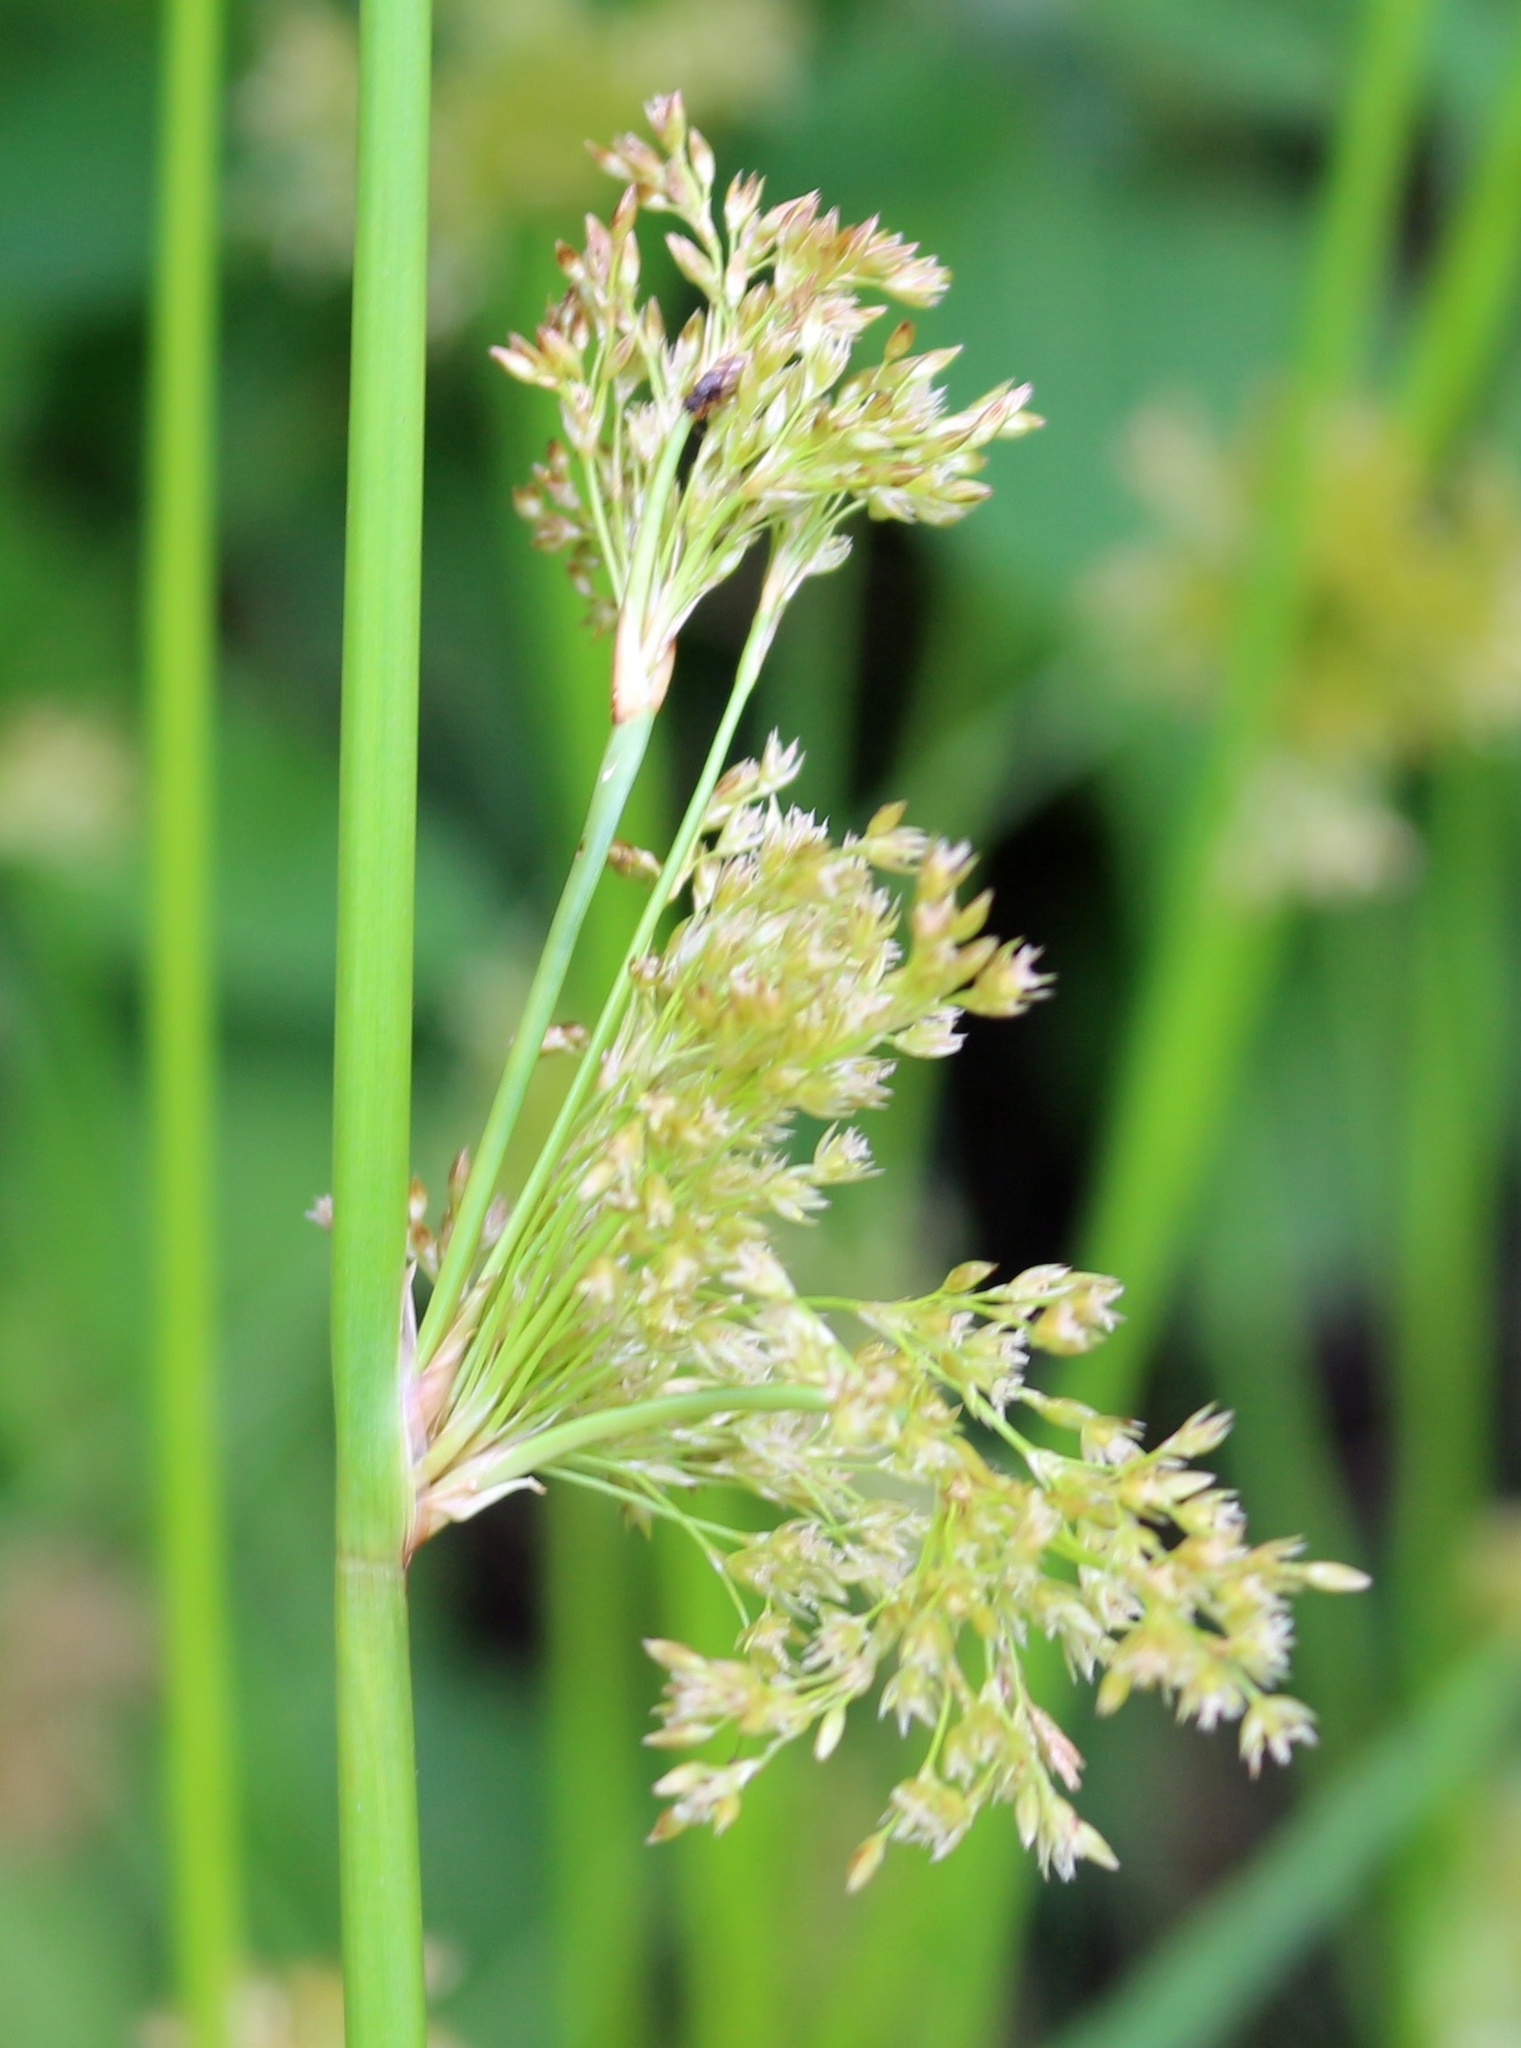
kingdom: Plantae
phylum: Tracheophyta
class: Liliopsida
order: Poales
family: Juncaceae
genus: Juncus
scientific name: Juncus effusus
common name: Soft rush
